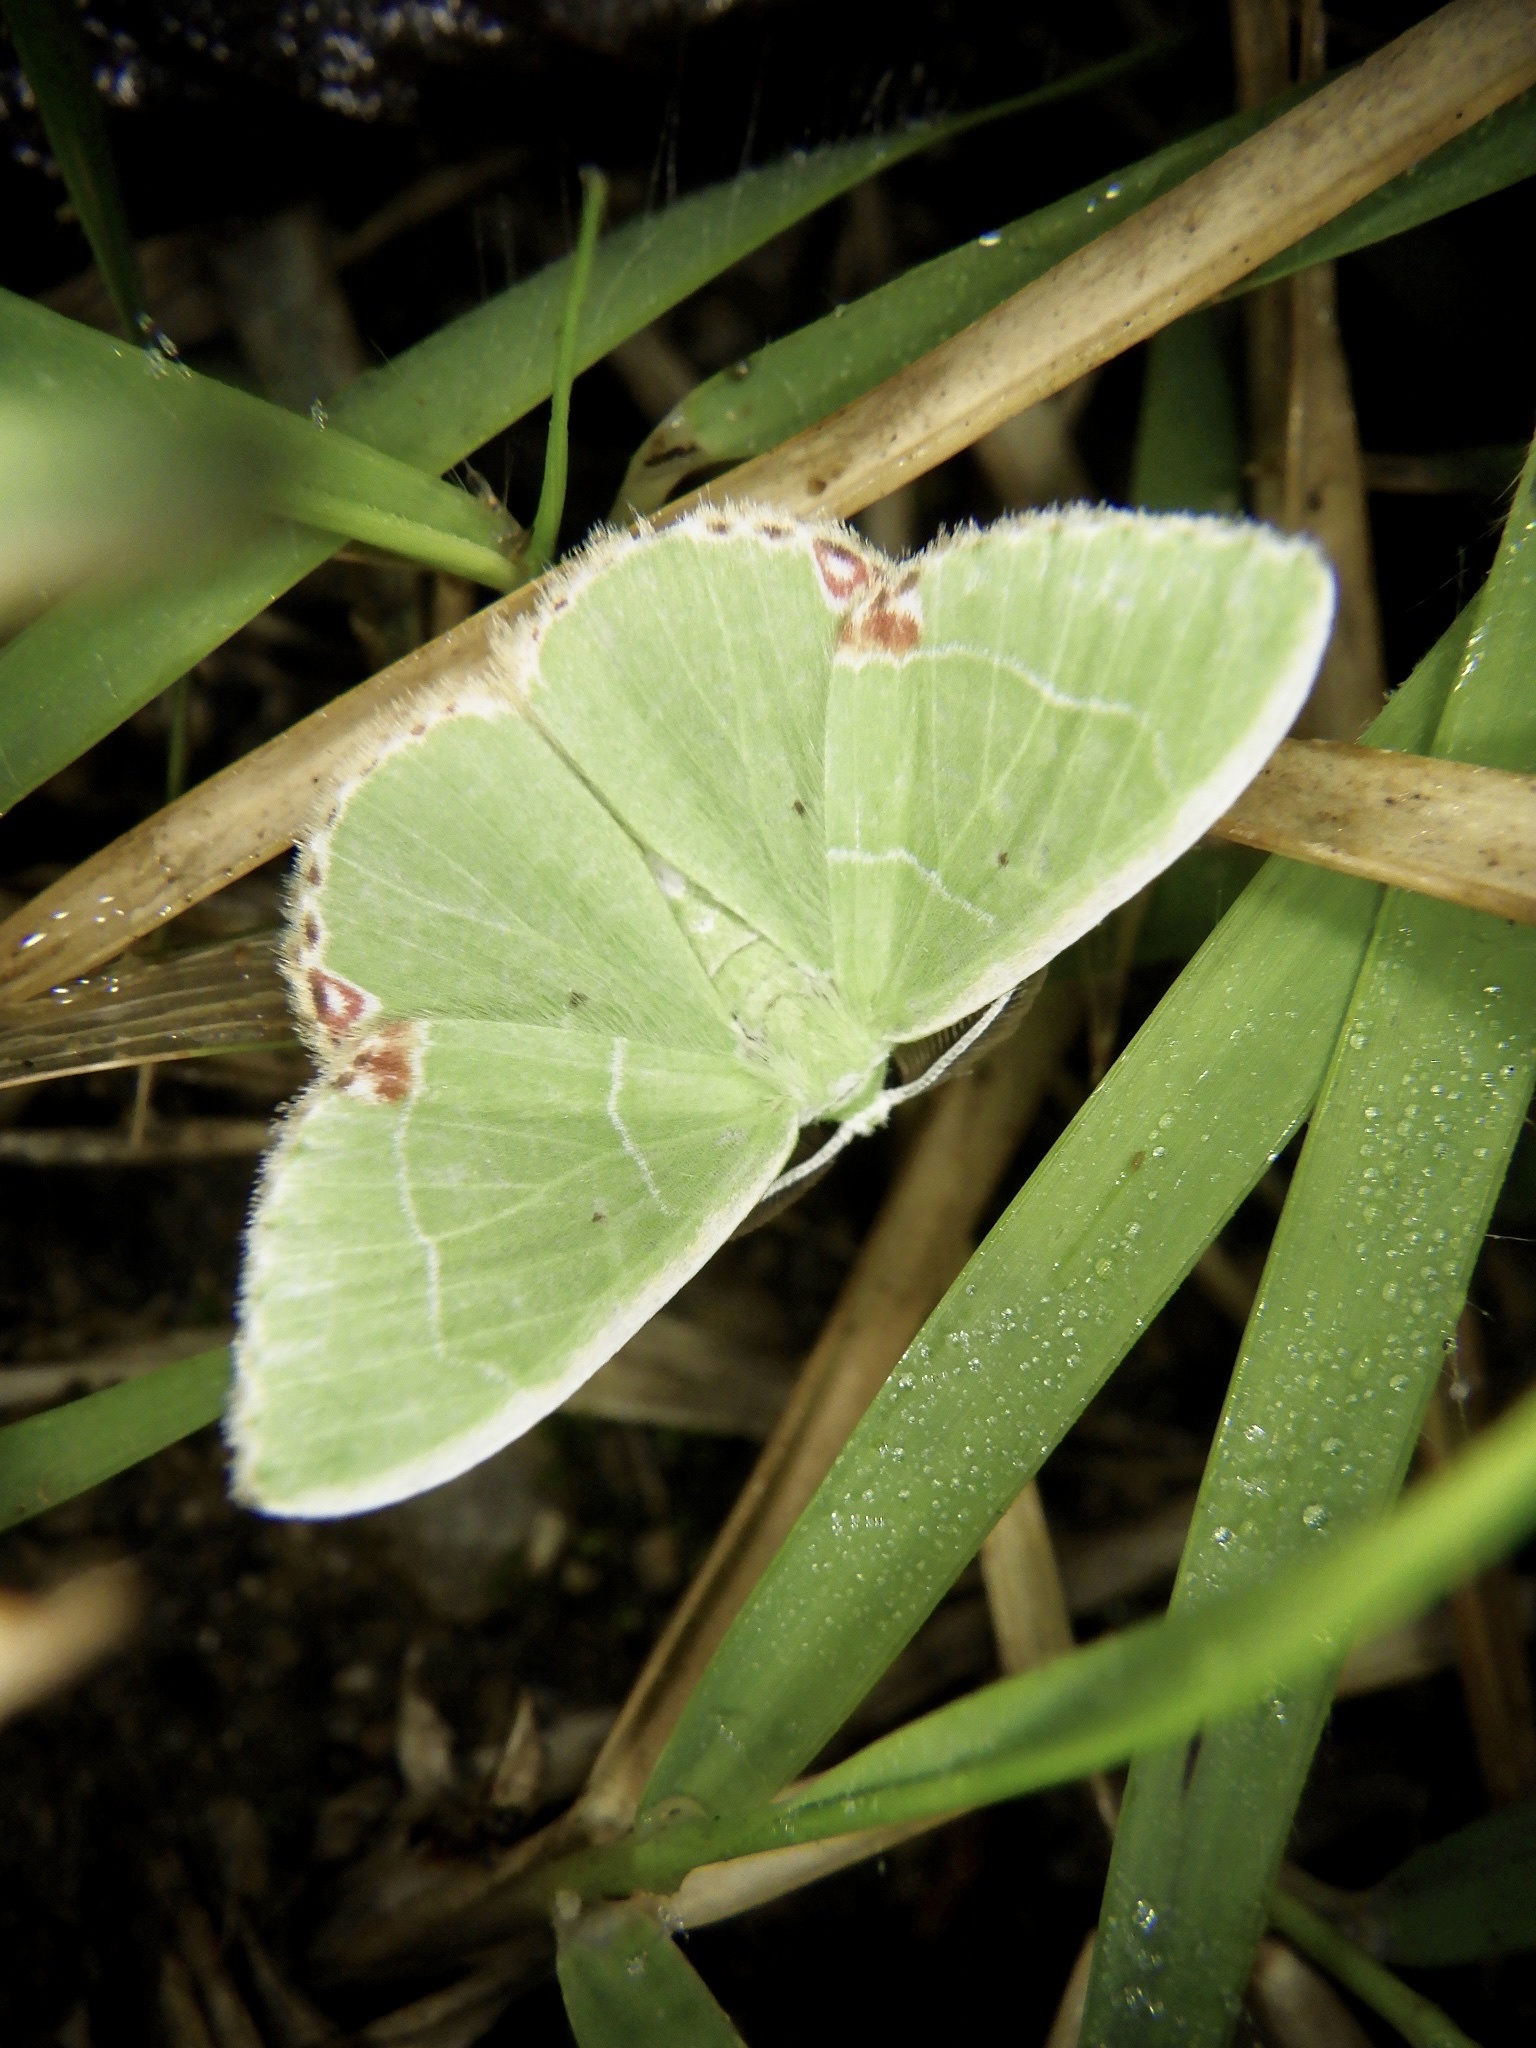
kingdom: Animalia
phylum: Arthropoda
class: Insecta
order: Lepidoptera
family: Geometridae
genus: Comibaena
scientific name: Comibaena amoenaria
